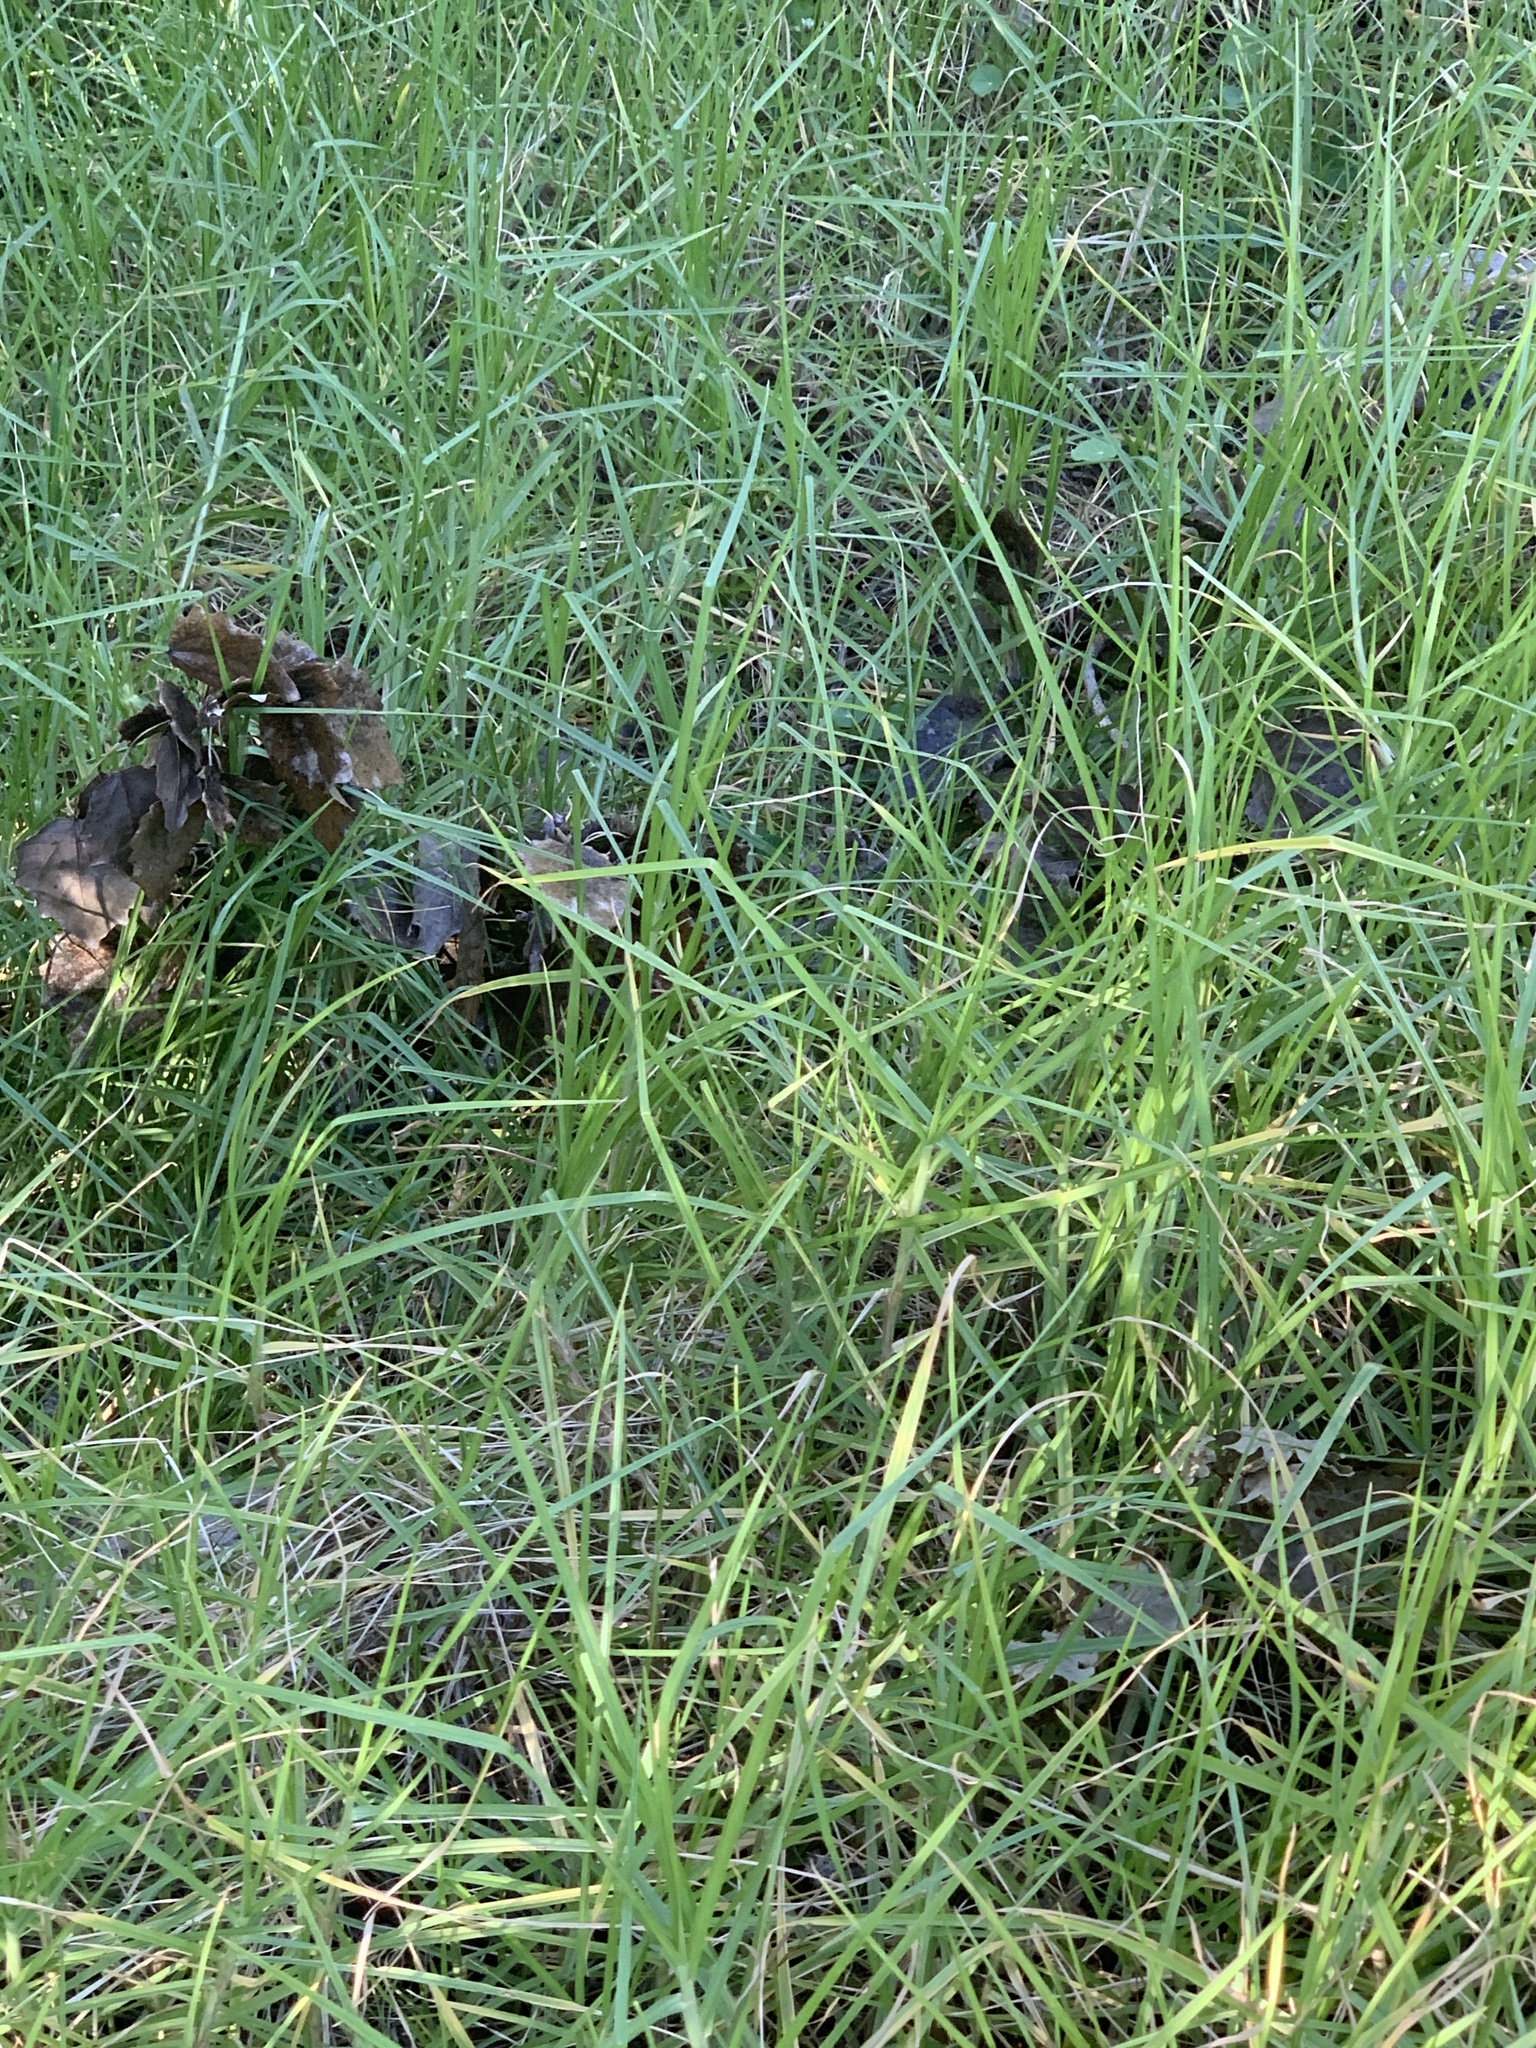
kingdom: Plantae
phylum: Tracheophyta
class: Liliopsida
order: Poales
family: Poaceae
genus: Cenchrus
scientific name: Cenchrus clandestinus
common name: Kikuyugrass
